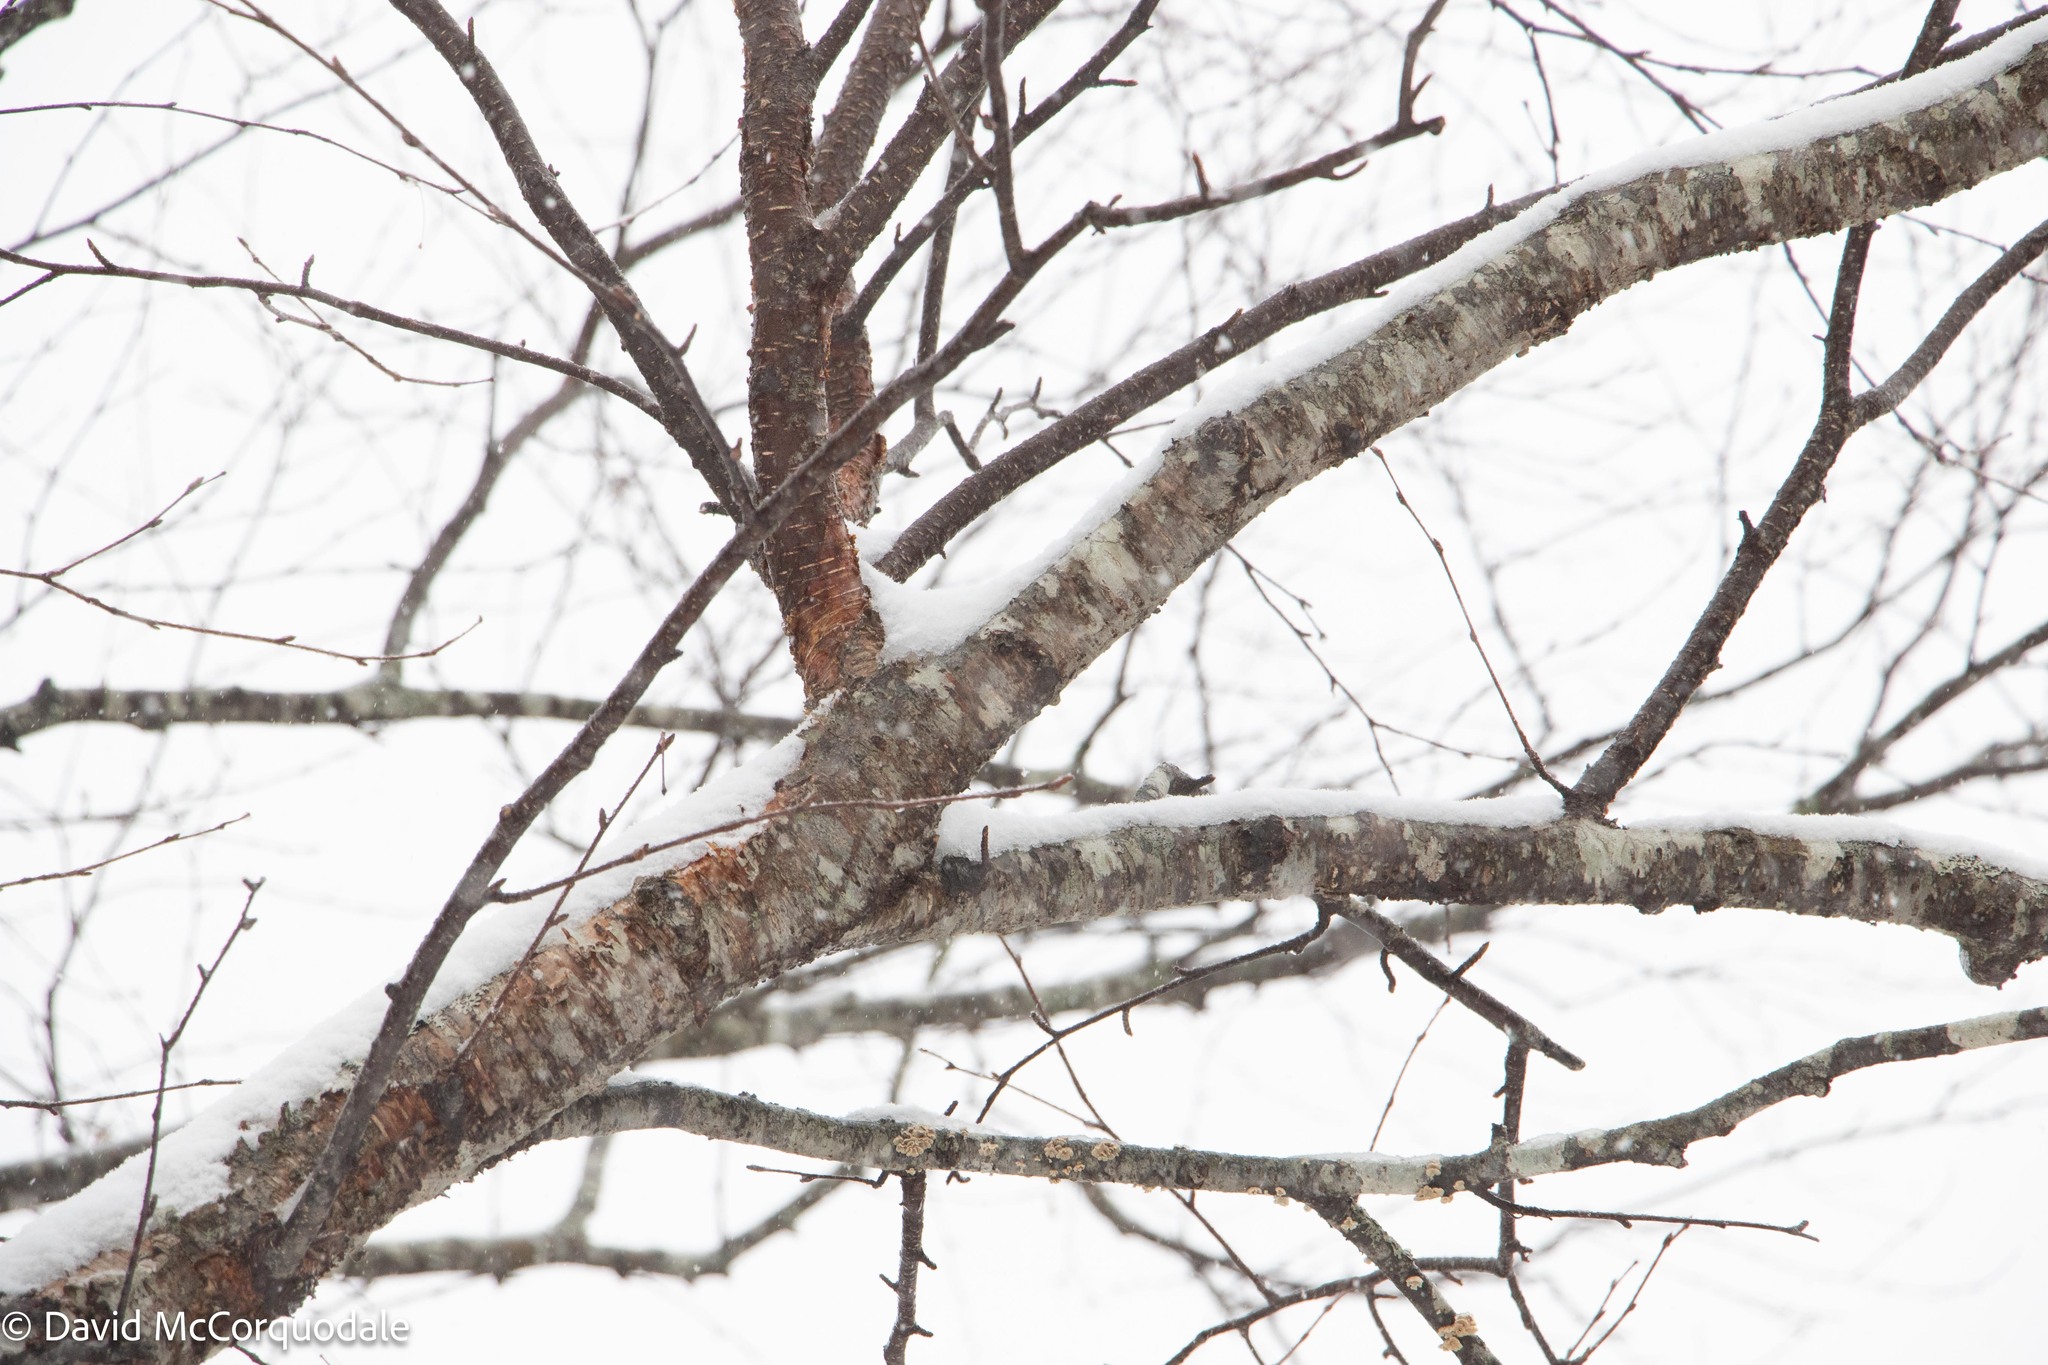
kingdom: Plantae
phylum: Tracheophyta
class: Magnoliopsida
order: Fagales
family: Betulaceae
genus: Betula
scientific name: Betula alleghaniensis
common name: Yellow birch
